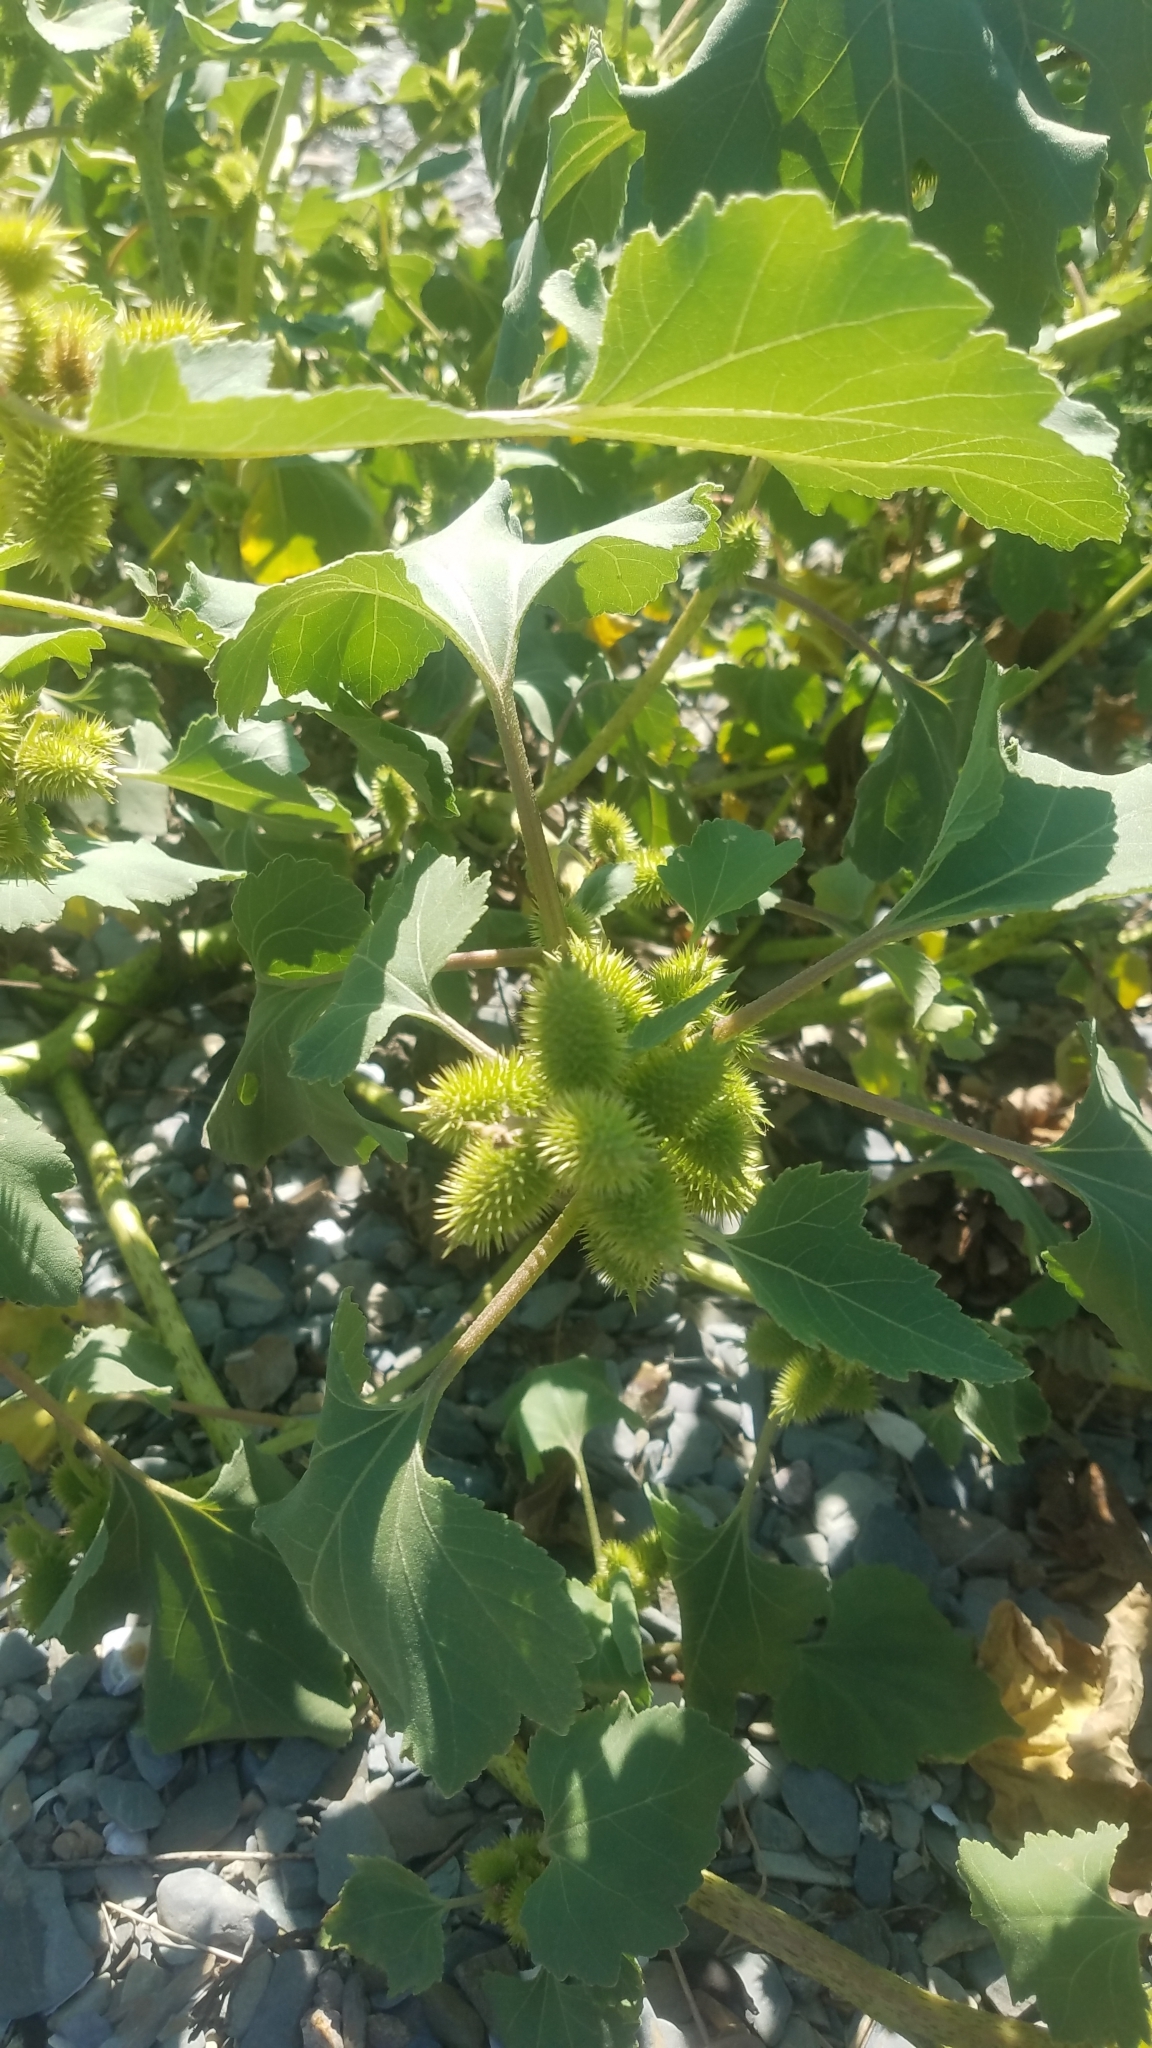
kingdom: Plantae
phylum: Tracheophyta
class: Magnoliopsida
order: Asterales
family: Asteraceae
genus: Xanthium
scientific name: Xanthium strumarium
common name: Rough cocklebur
